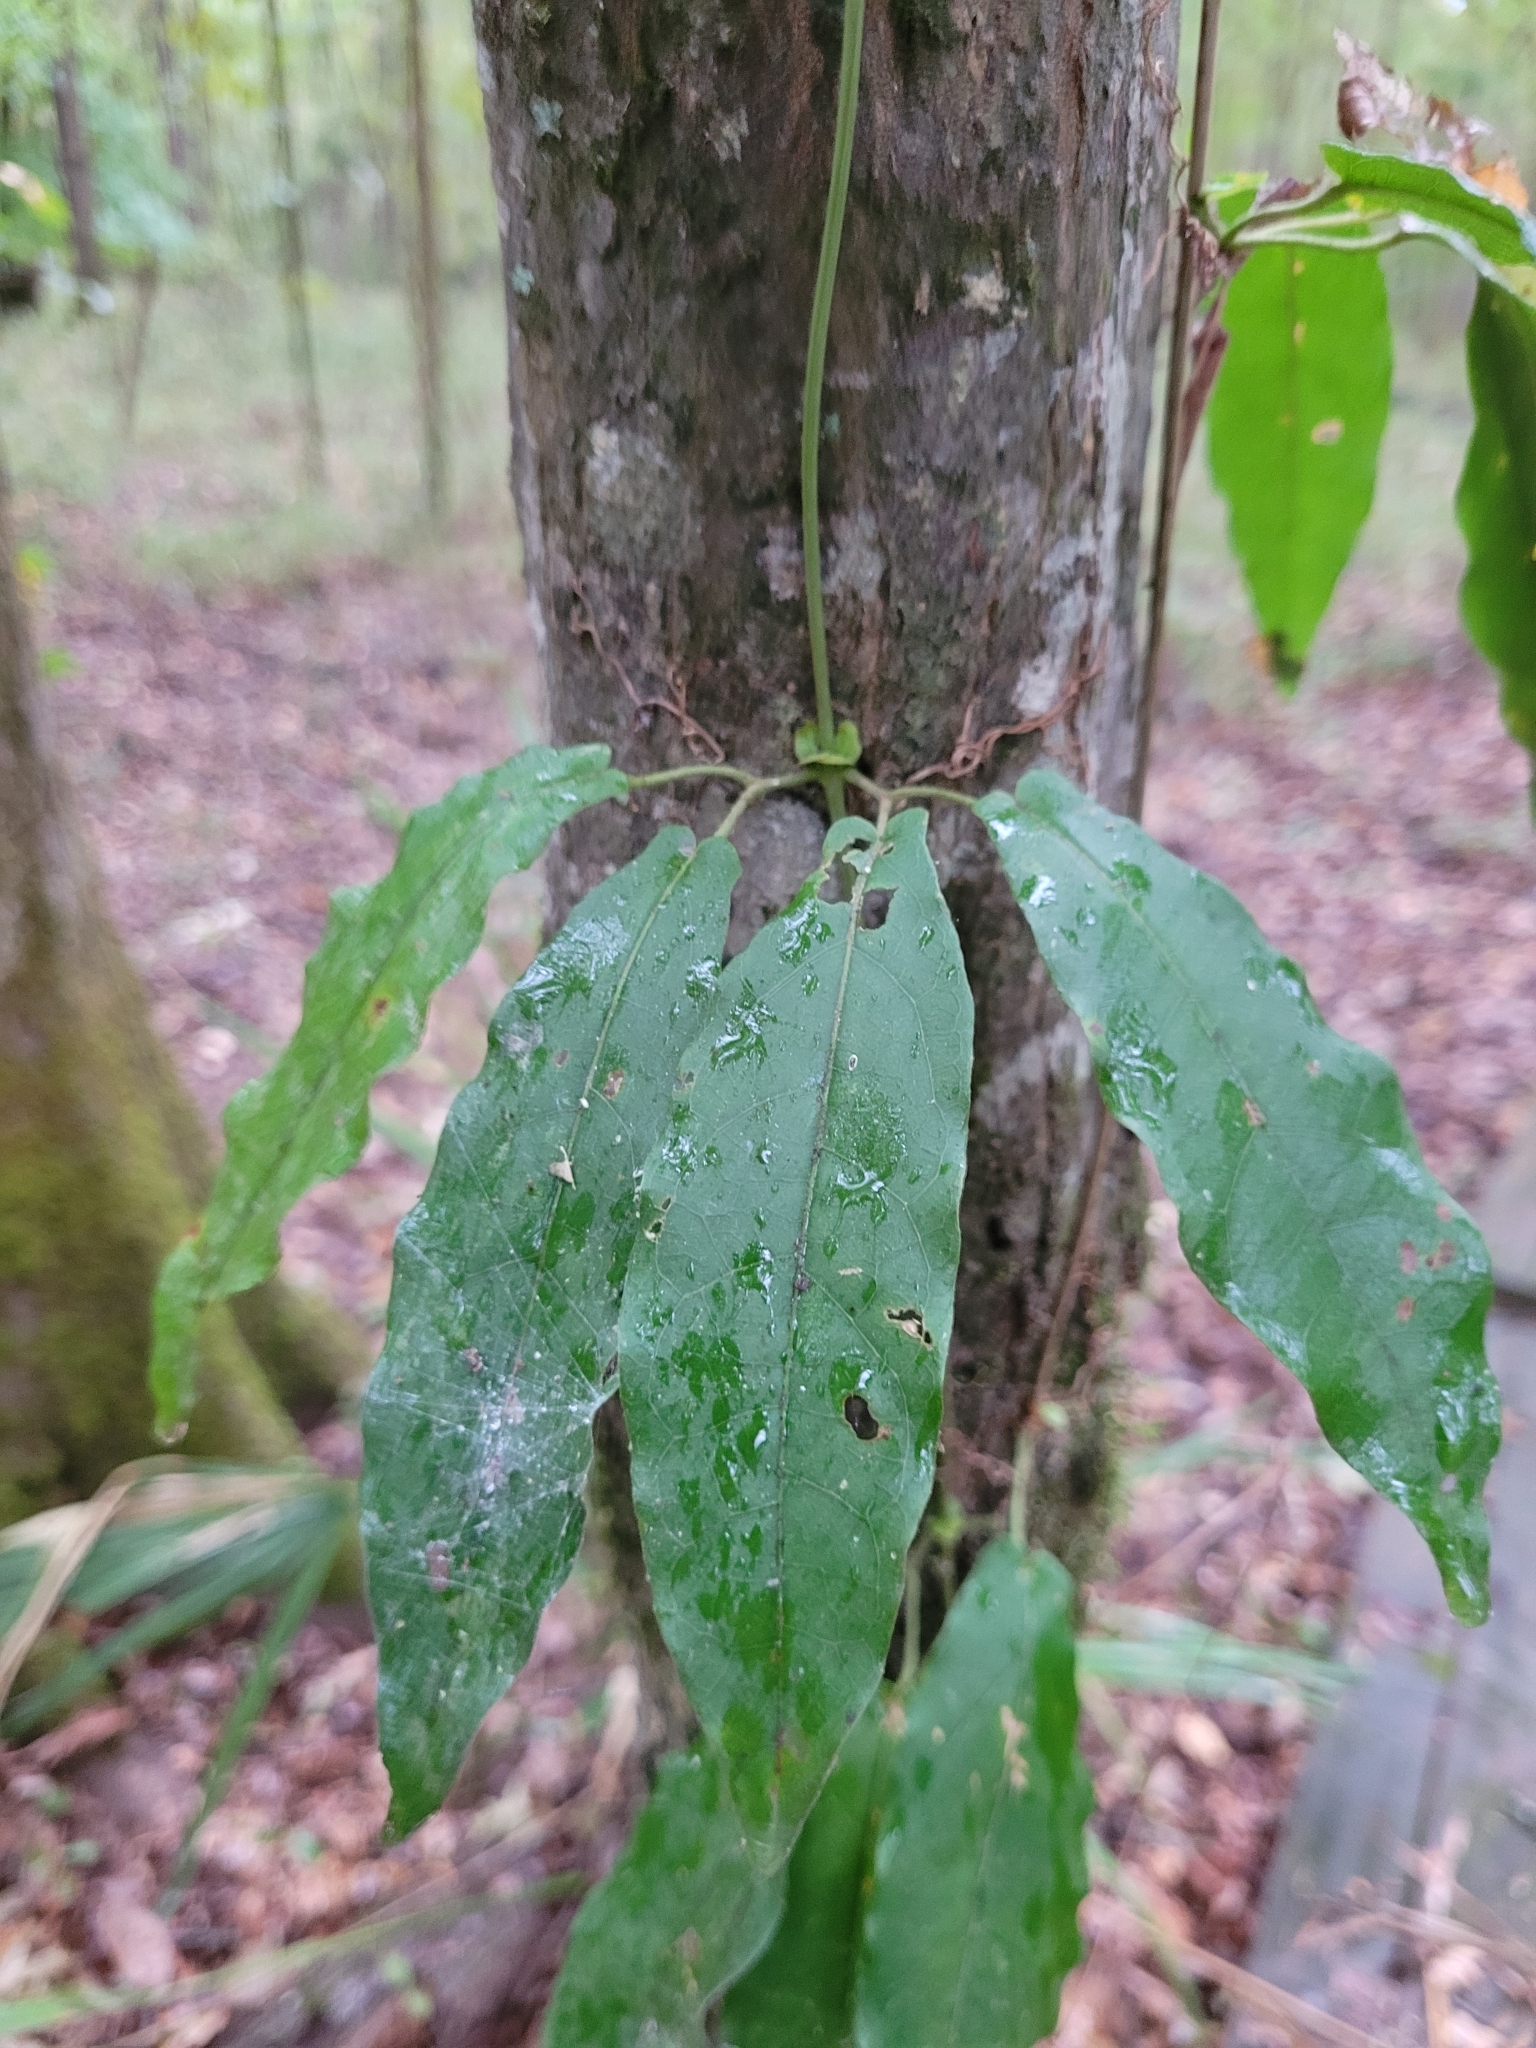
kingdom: Plantae
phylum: Tracheophyta
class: Magnoliopsida
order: Lamiales
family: Bignoniaceae
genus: Bignonia
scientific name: Bignonia capreolata
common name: Crossvine
